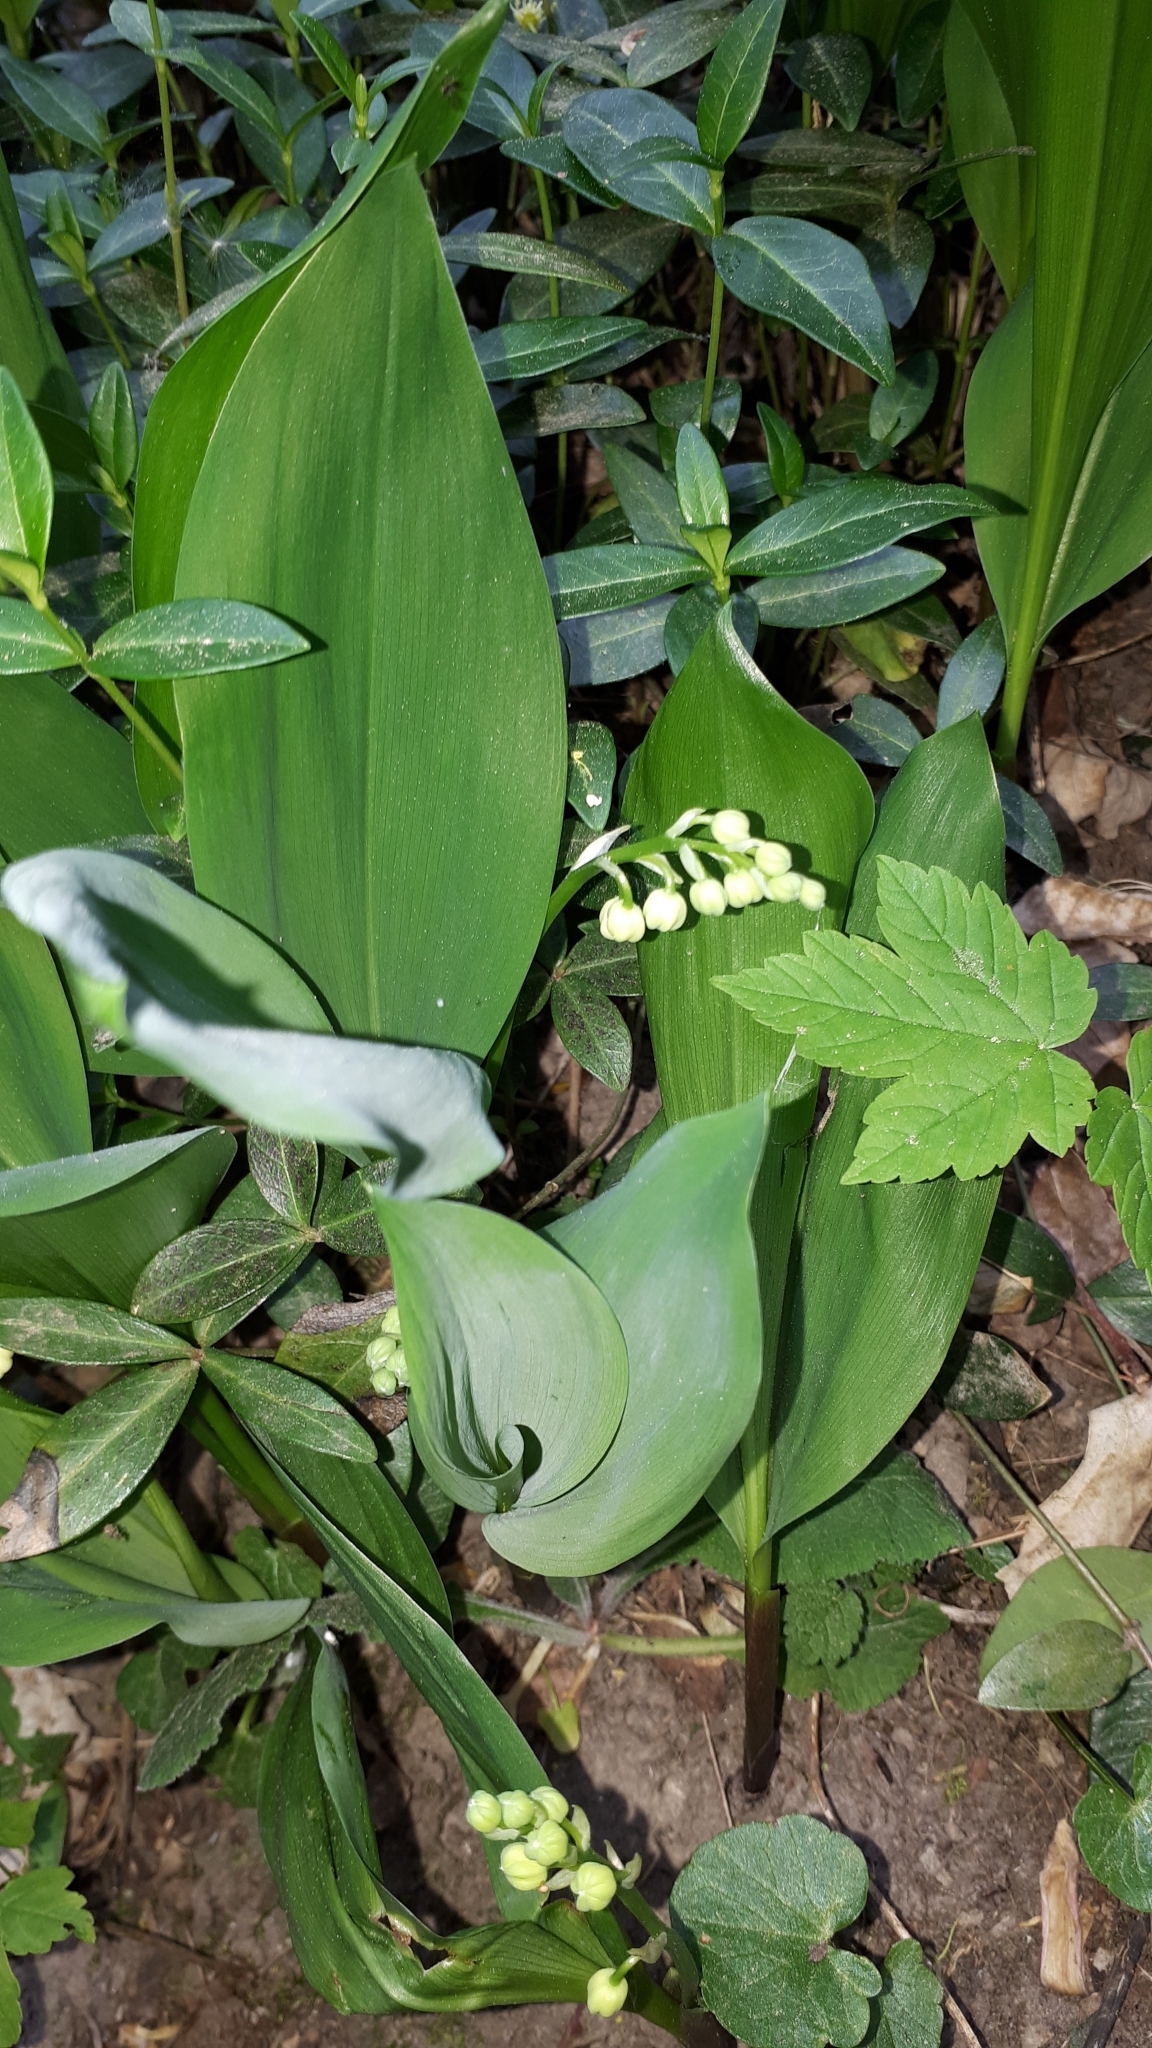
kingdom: Plantae
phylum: Tracheophyta
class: Liliopsida
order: Asparagales
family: Asparagaceae
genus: Convallaria
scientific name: Convallaria majalis
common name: Lily-of-the-valley
